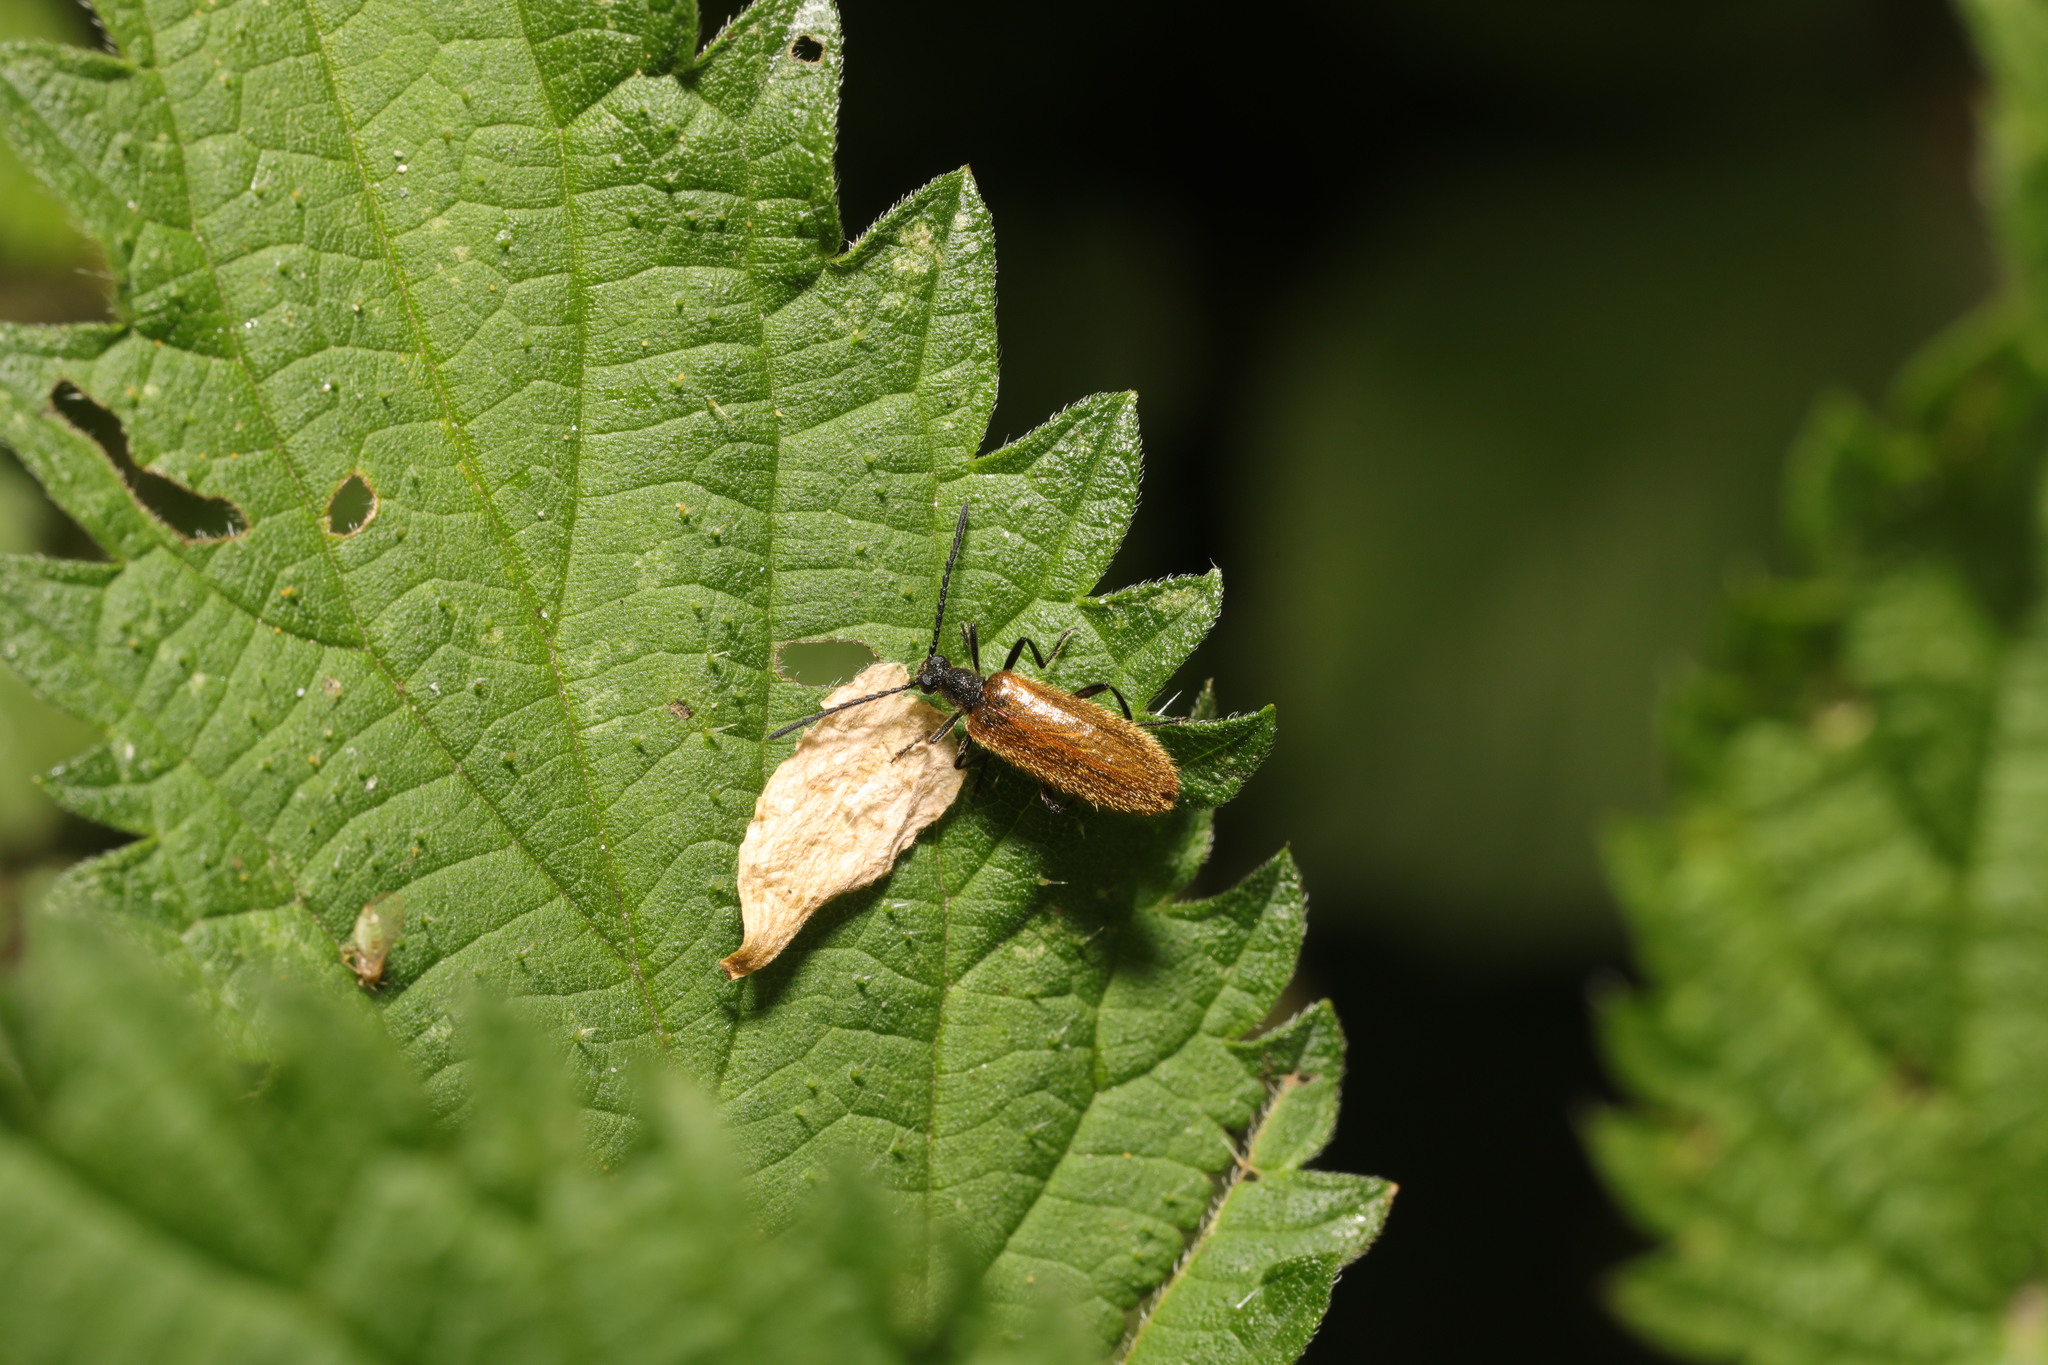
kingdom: Animalia
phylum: Arthropoda
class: Insecta
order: Coleoptera
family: Tenebrionidae
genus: Lagria
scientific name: Lagria hirta
